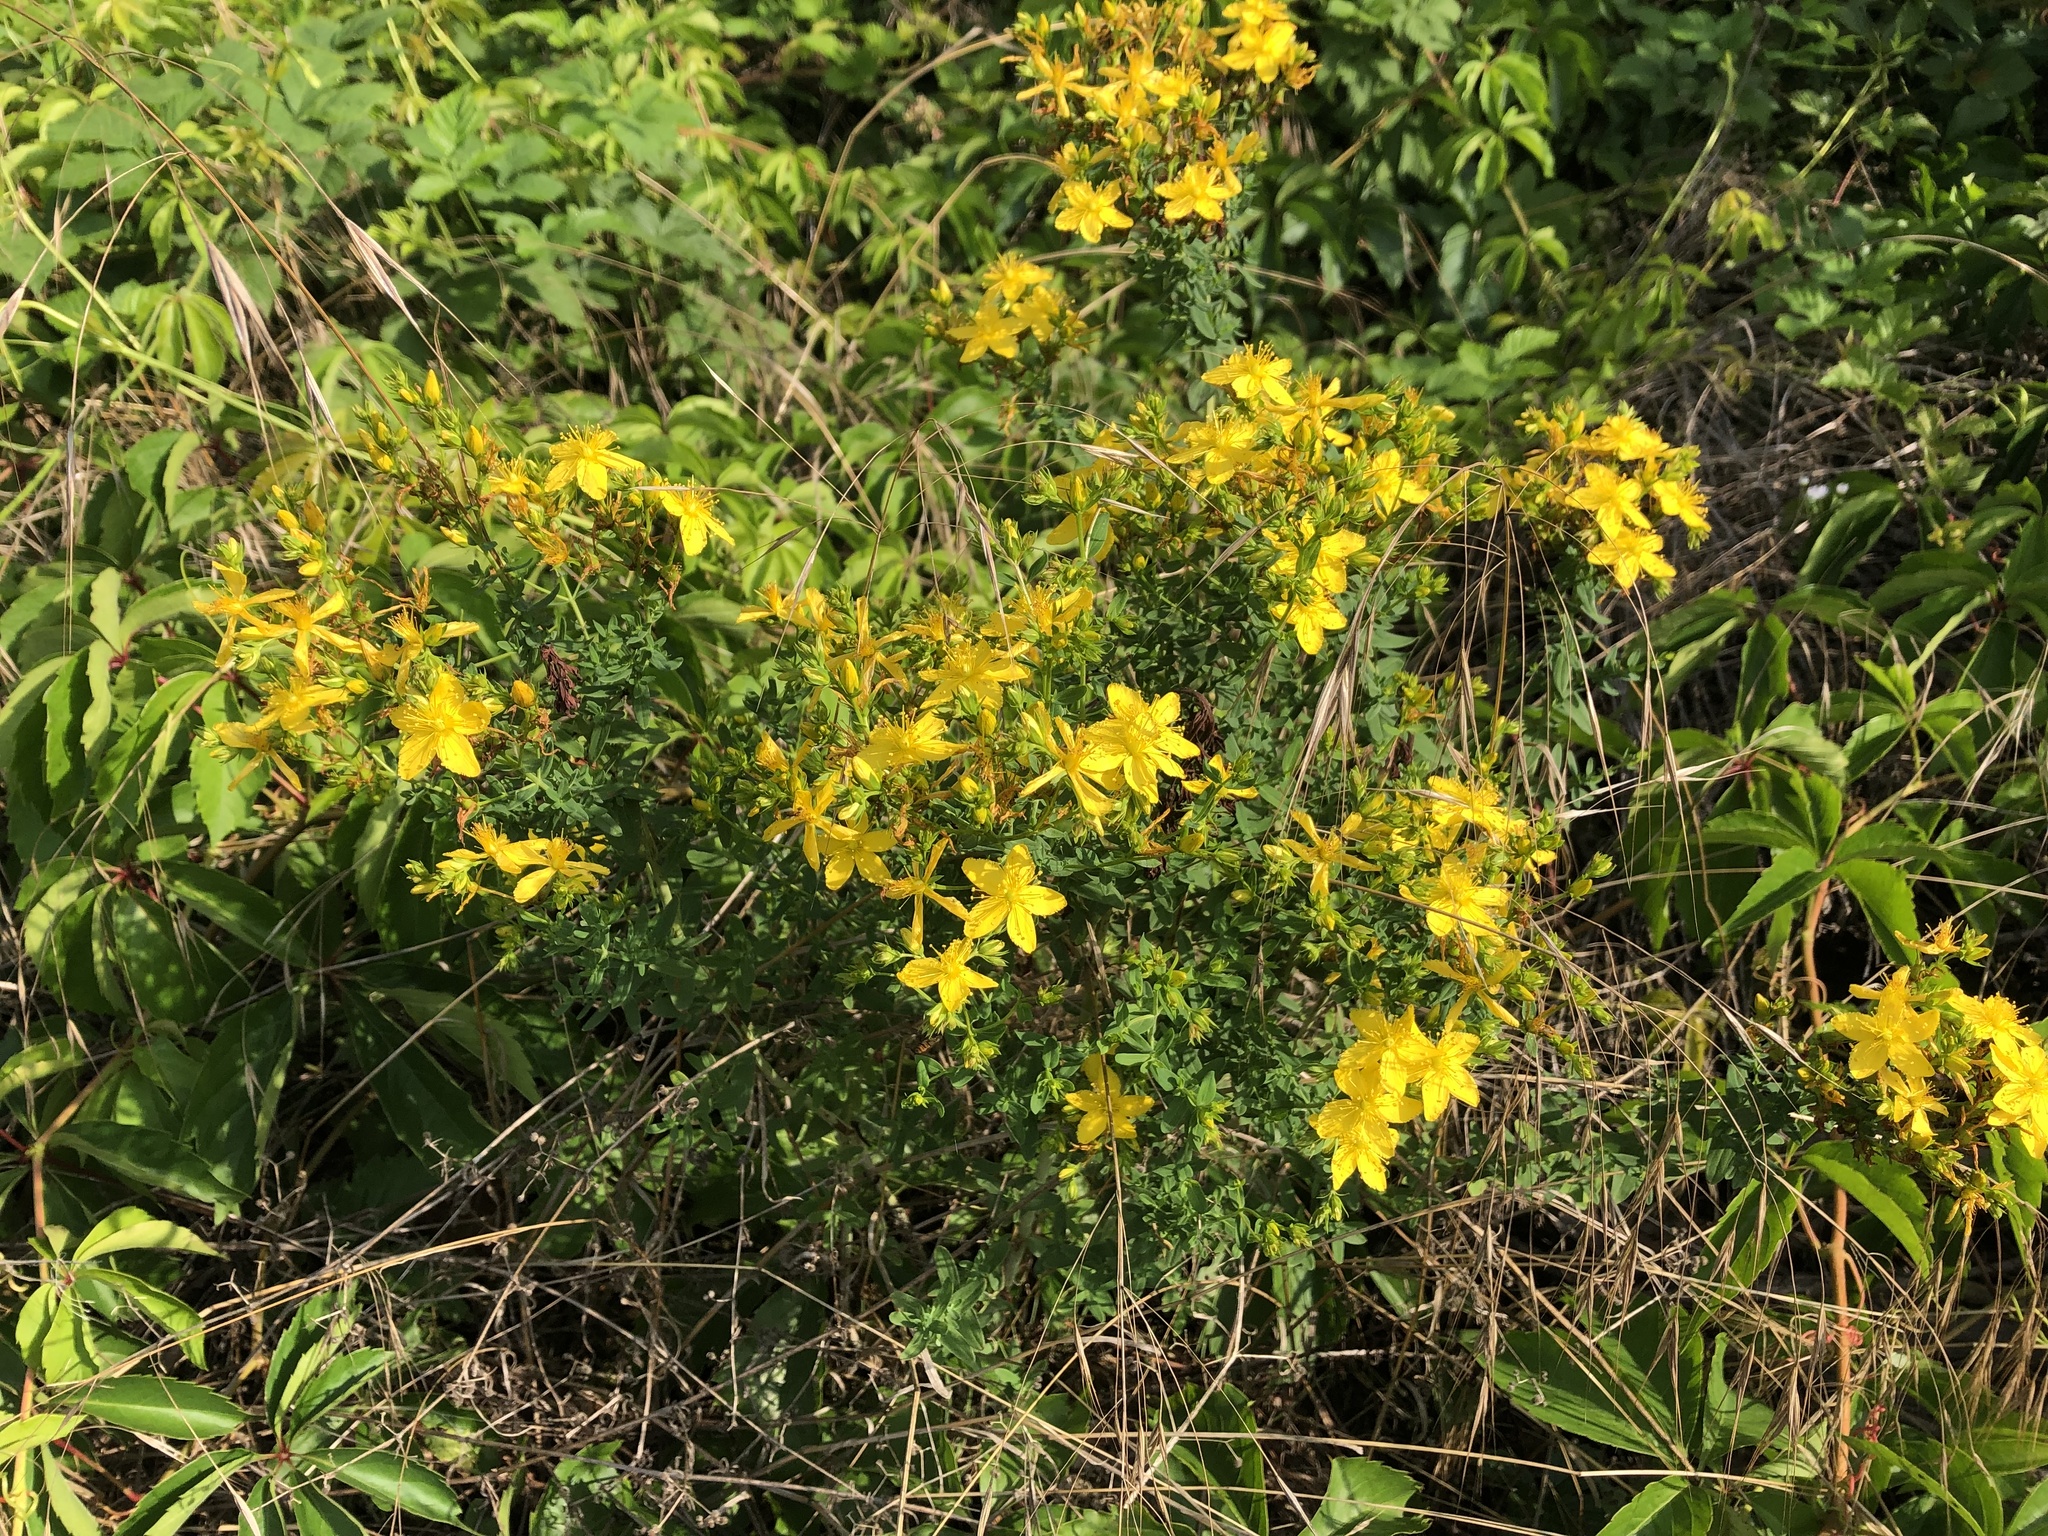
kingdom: Plantae
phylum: Tracheophyta
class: Magnoliopsida
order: Malpighiales
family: Hypericaceae
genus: Hypericum
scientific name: Hypericum perforatum
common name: Common st. johnswort
